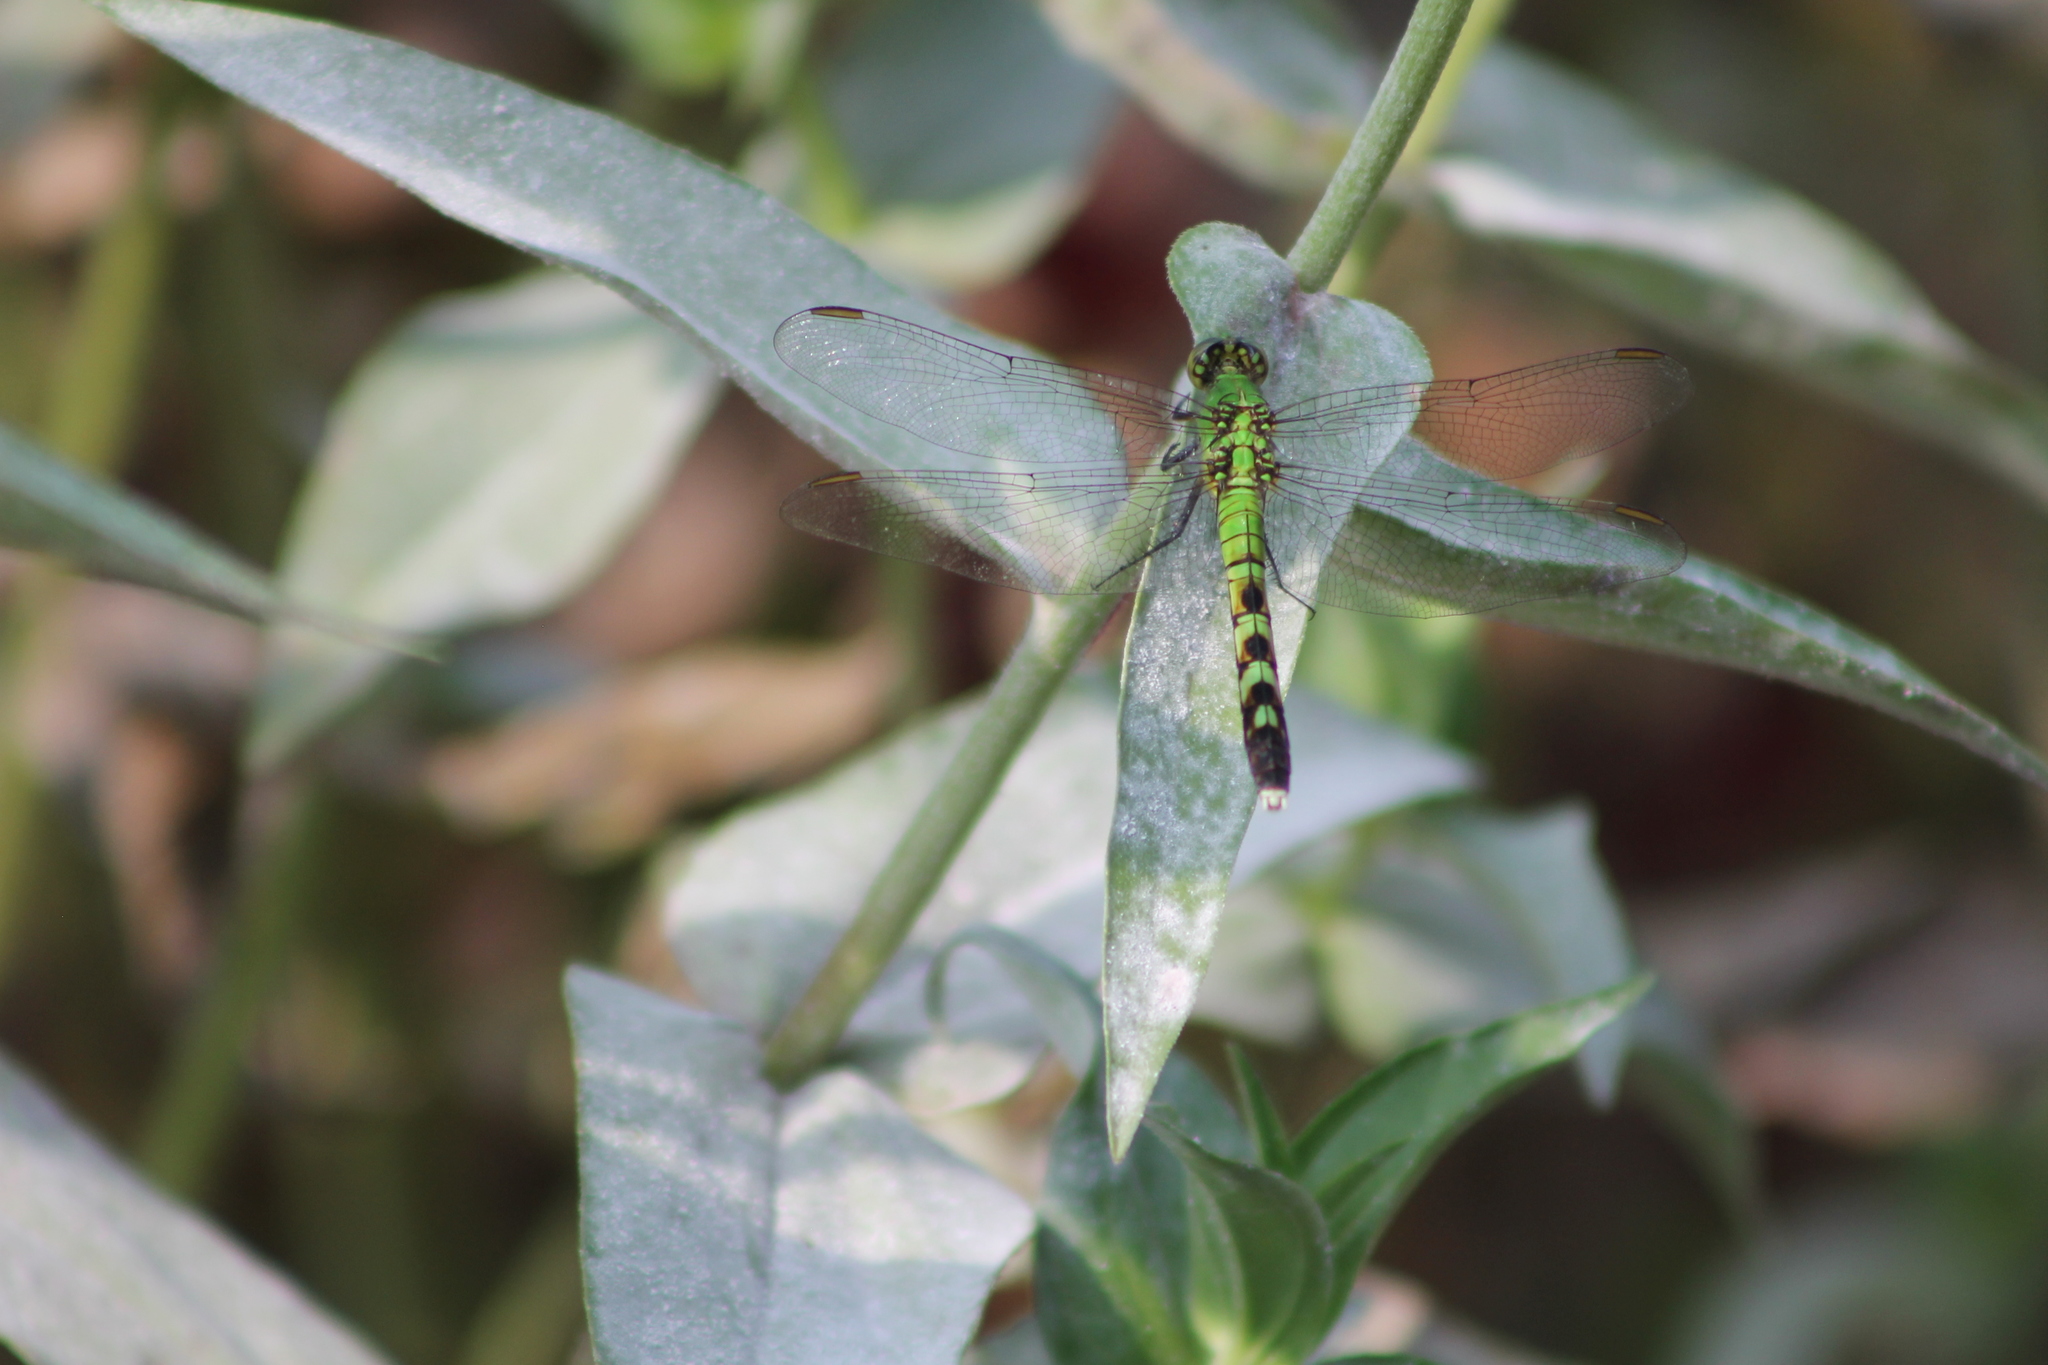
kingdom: Animalia
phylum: Arthropoda
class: Insecta
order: Odonata
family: Libellulidae
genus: Erythemis
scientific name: Erythemis simplicicollis
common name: Eastern pondhawk
